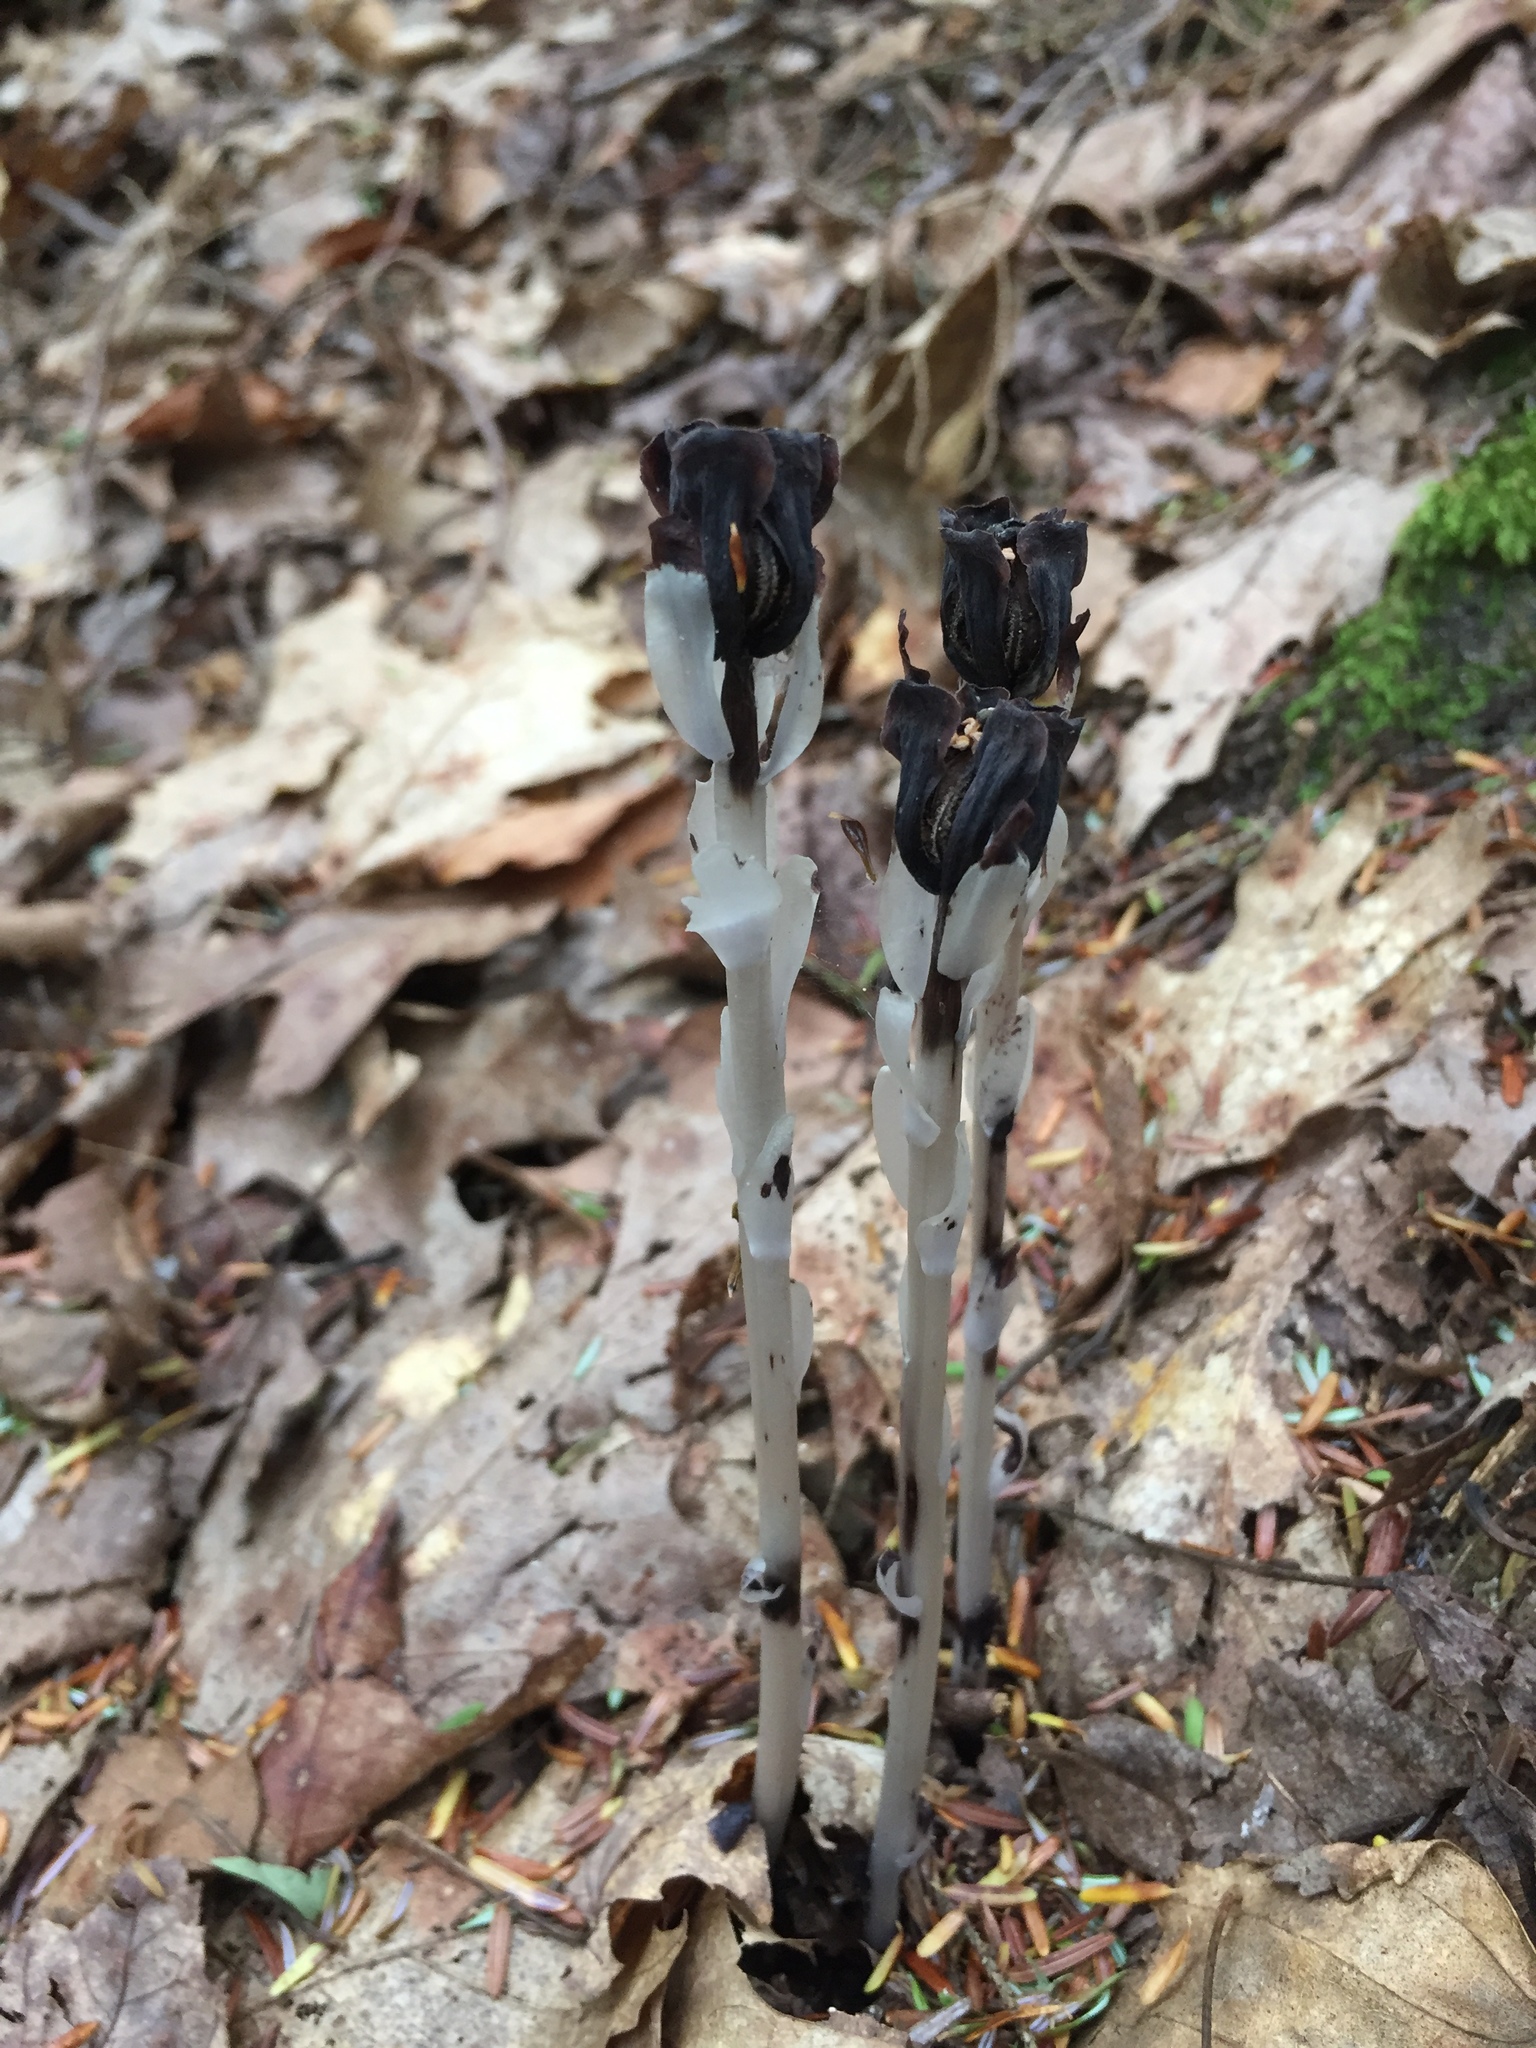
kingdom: Plantae
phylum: Tracheophyta
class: Magnoliopsida
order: Ericales
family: Ericaceae
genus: Monotropa
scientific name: Monotropa uniflora
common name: Convulsion root
